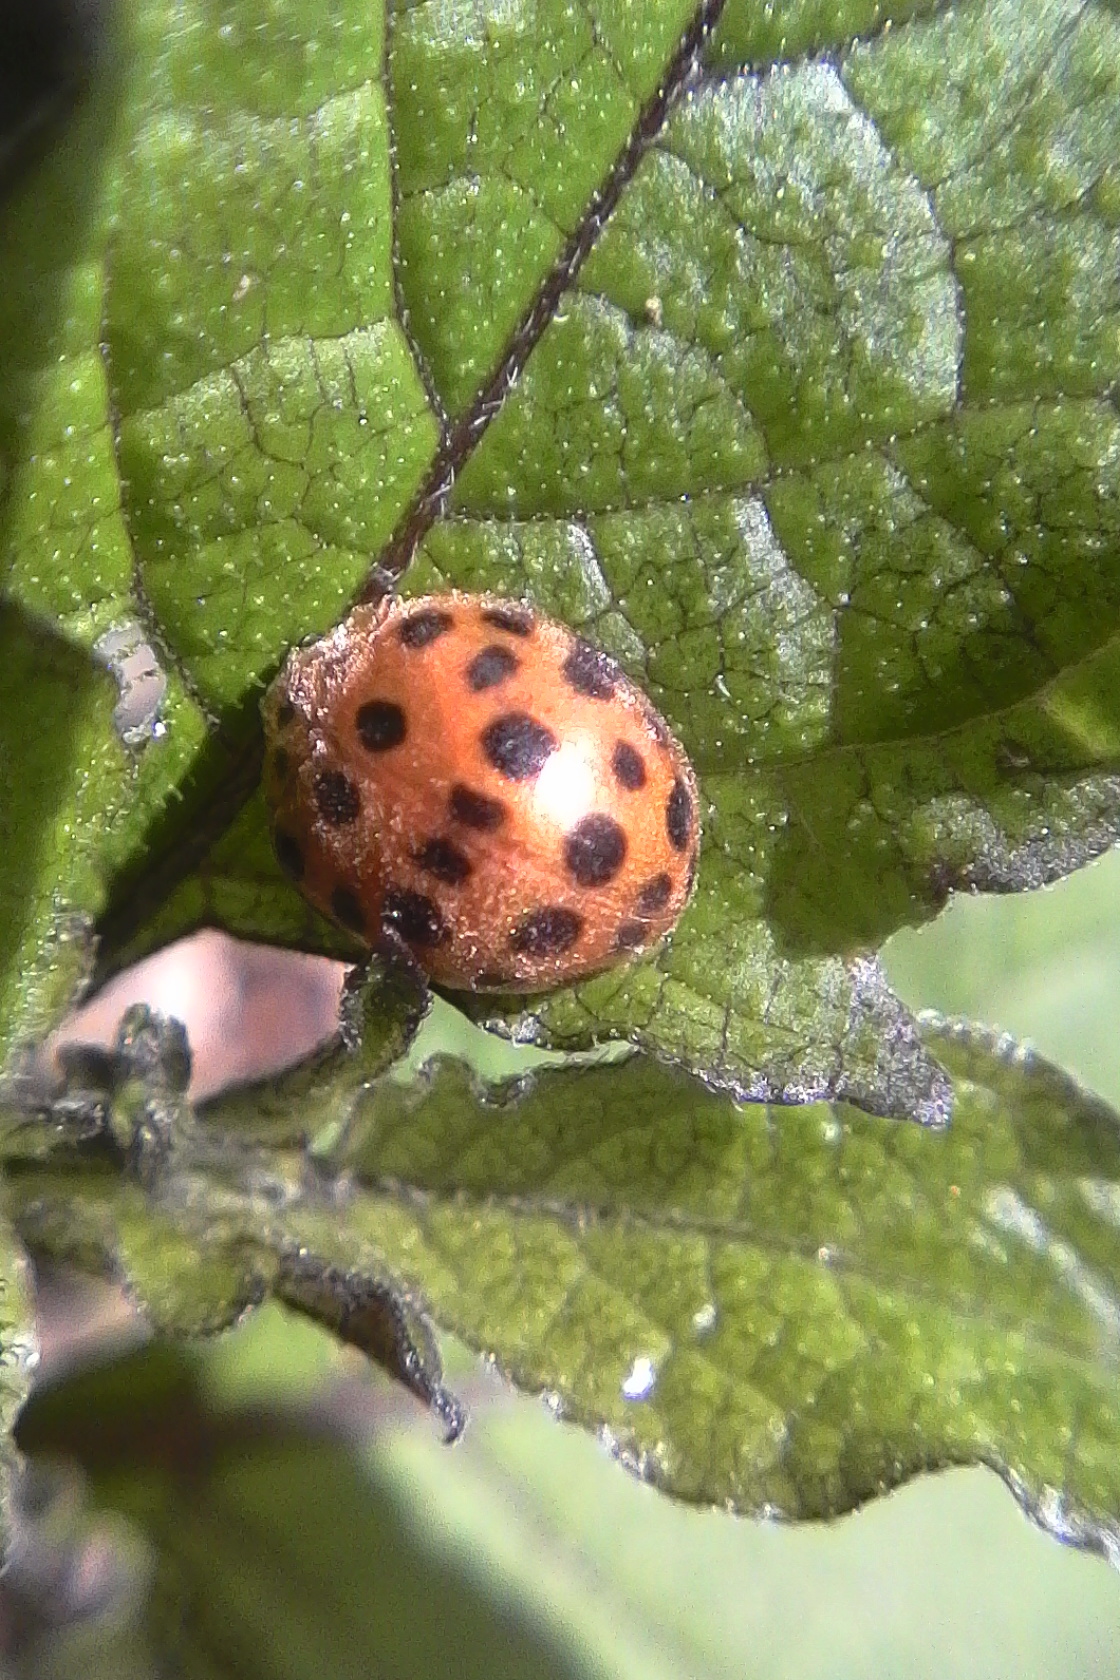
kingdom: Animalia
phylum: Arthropoda
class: Insecta
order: Coleoptera
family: Coccinellidae
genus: Henosepilachna
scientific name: Henosepilachna vigintioctopunctata
